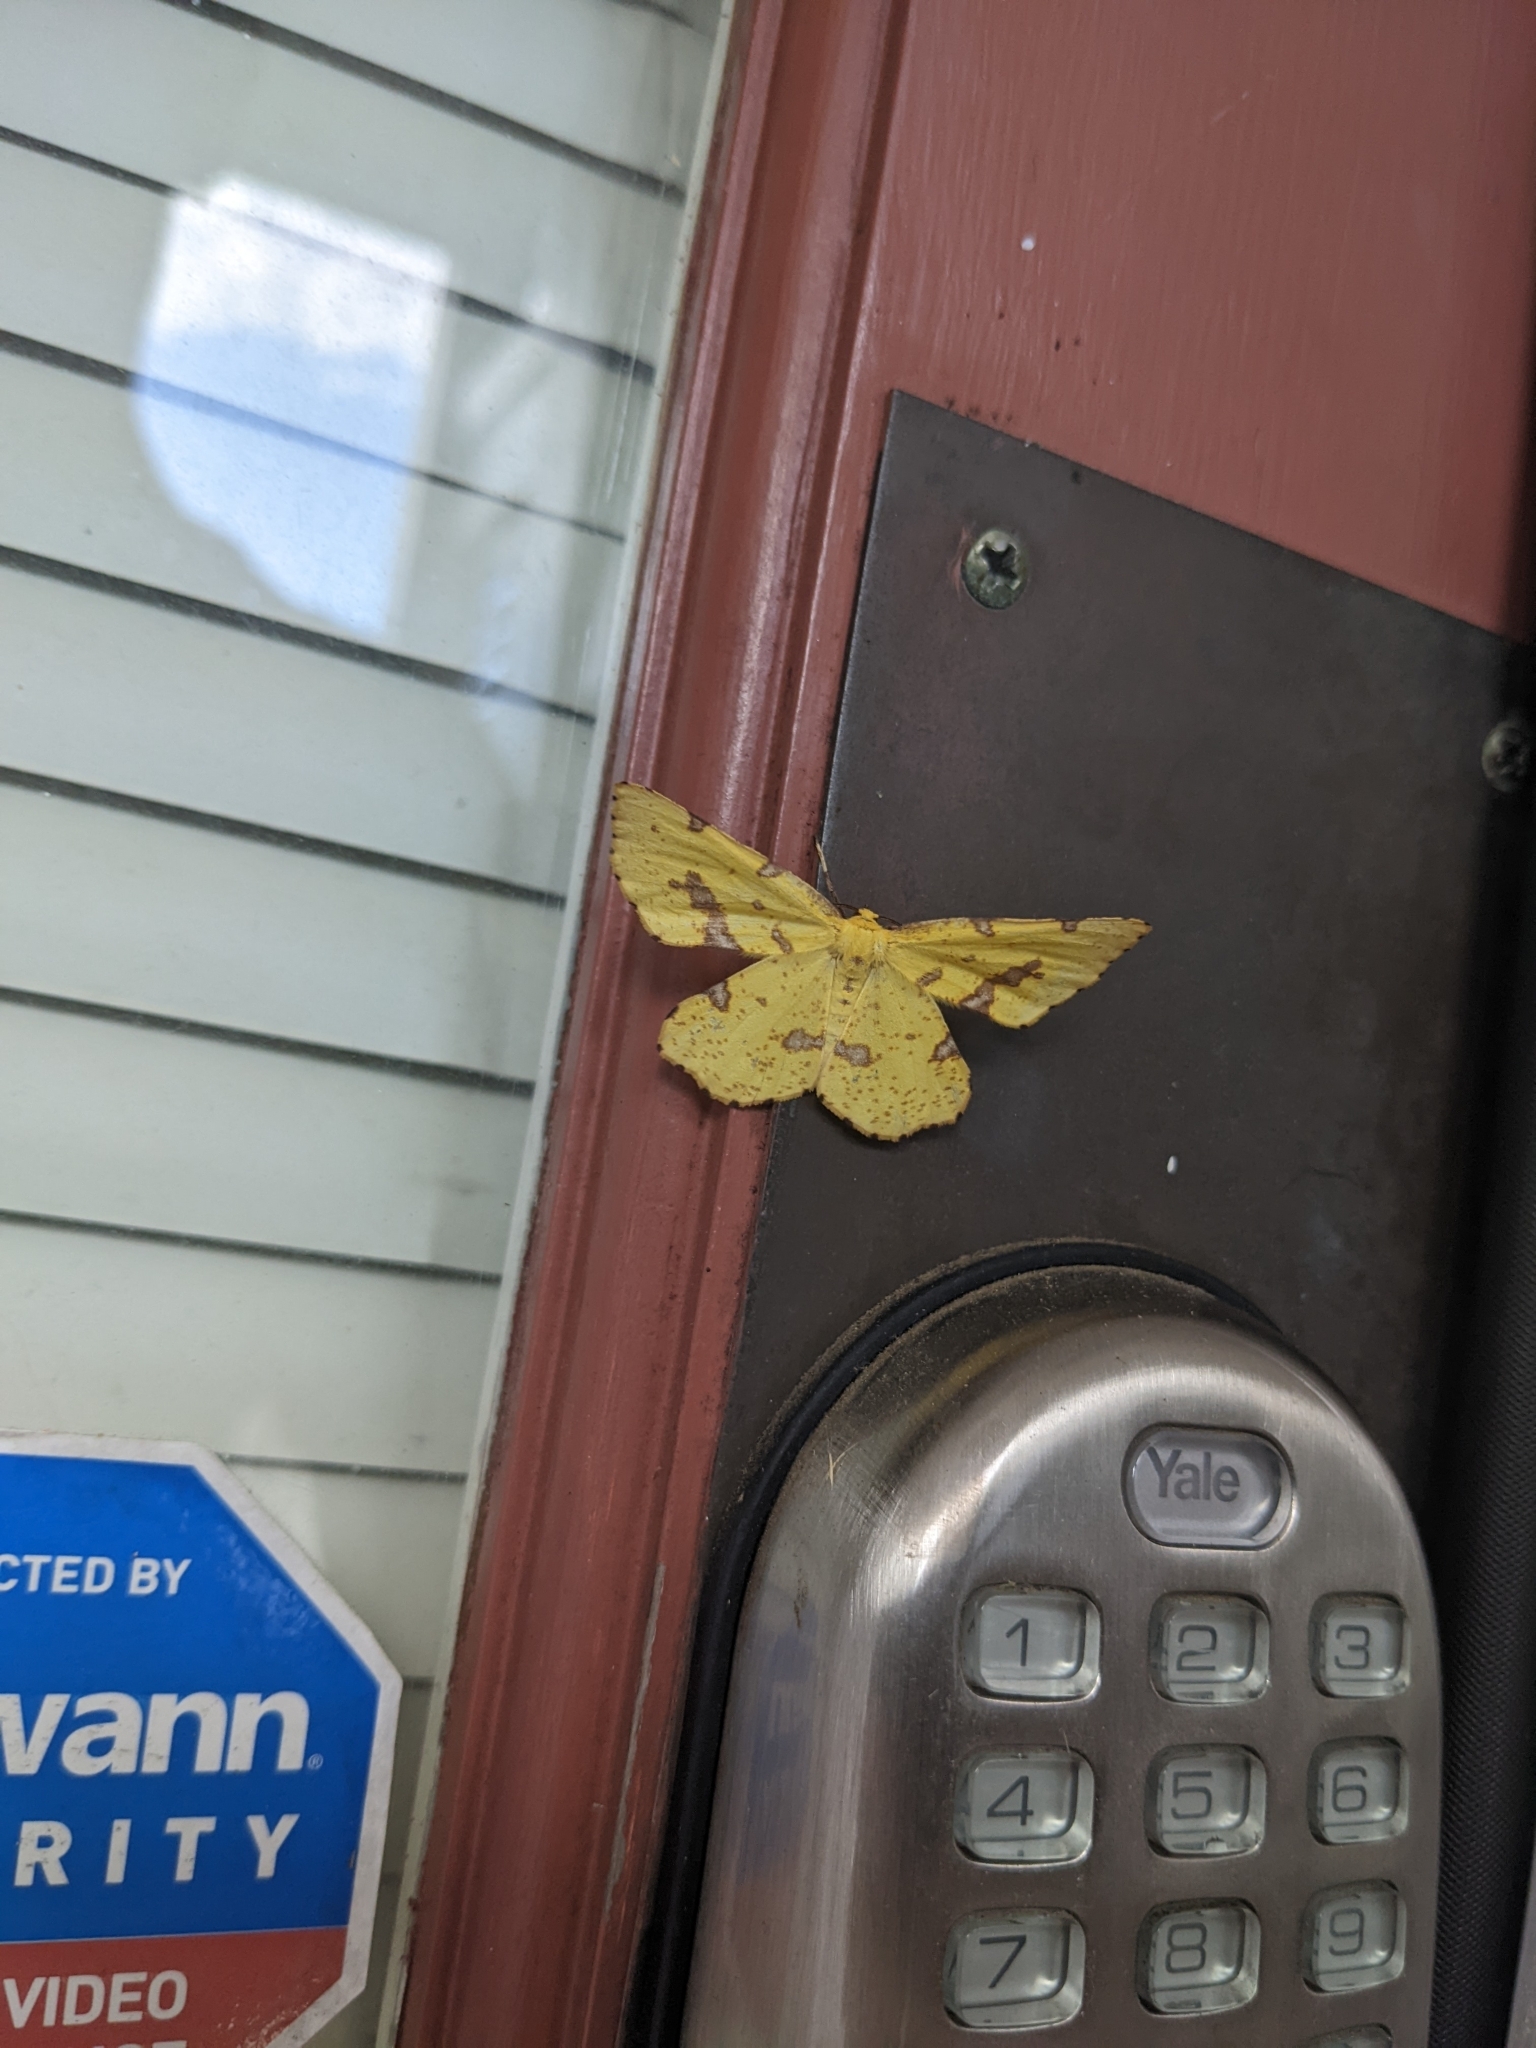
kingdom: Animalia
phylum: Arthropoda
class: Insecta
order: Lepidoptera
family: Geometridae
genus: Xanthotype
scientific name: Xanthotype
